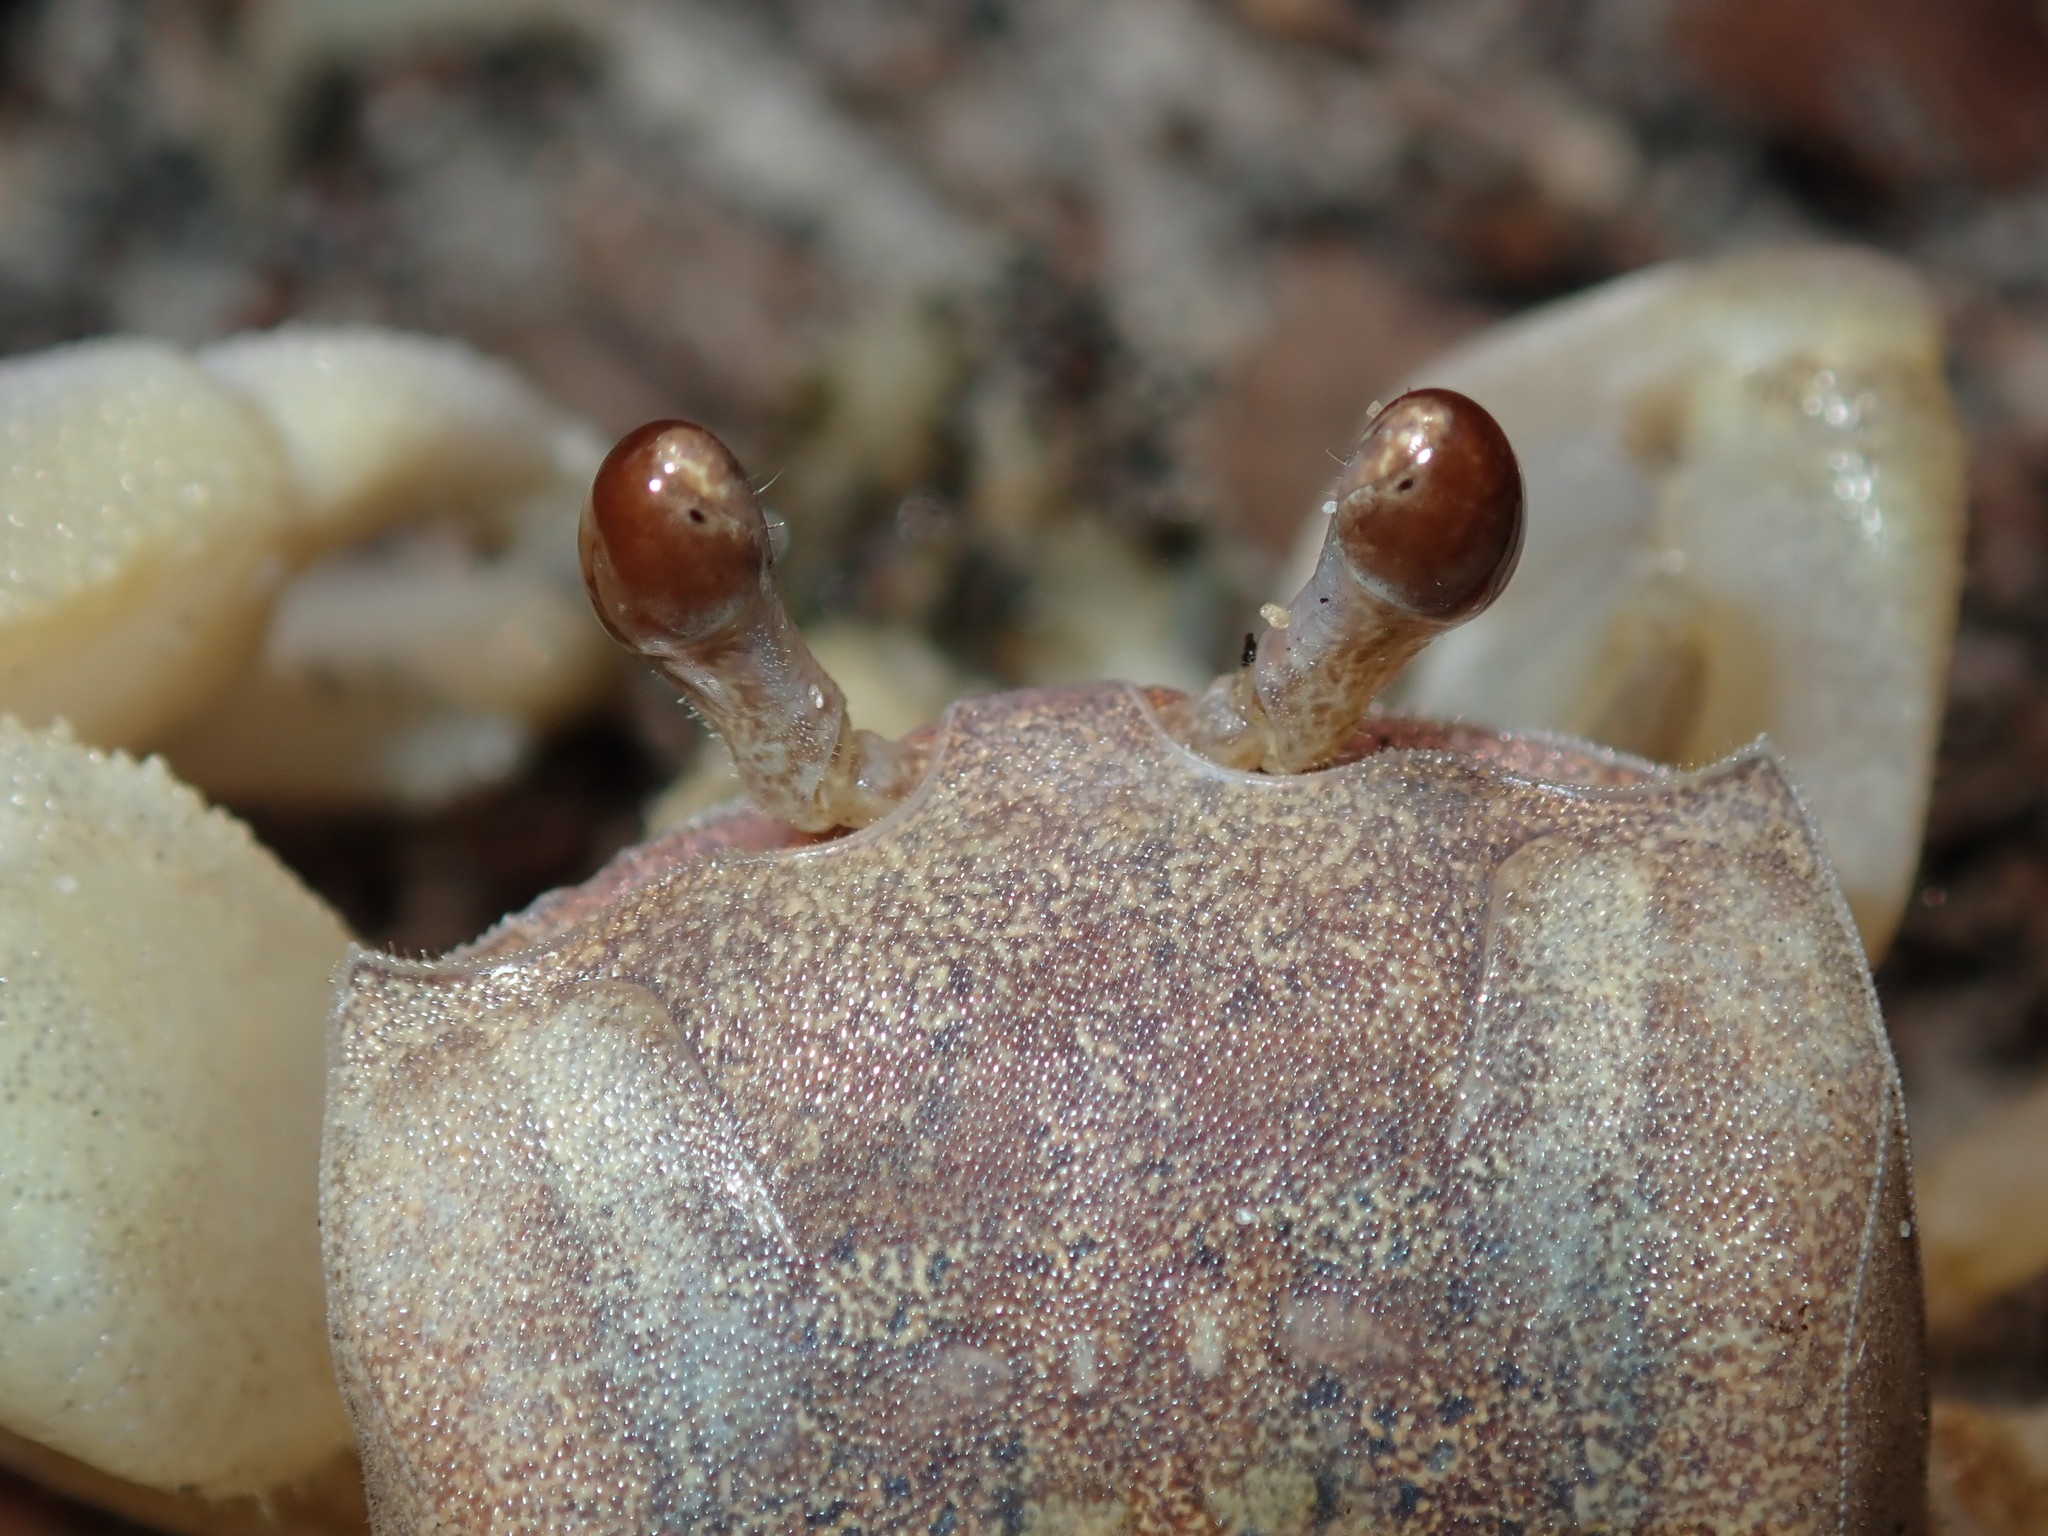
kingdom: Animalia
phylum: Arthropoda
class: Malacostraca
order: Decapoda
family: Ocypodidae
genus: Ocypode
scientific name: Ocypode cordimana
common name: Smooth-eyed ghost crab
